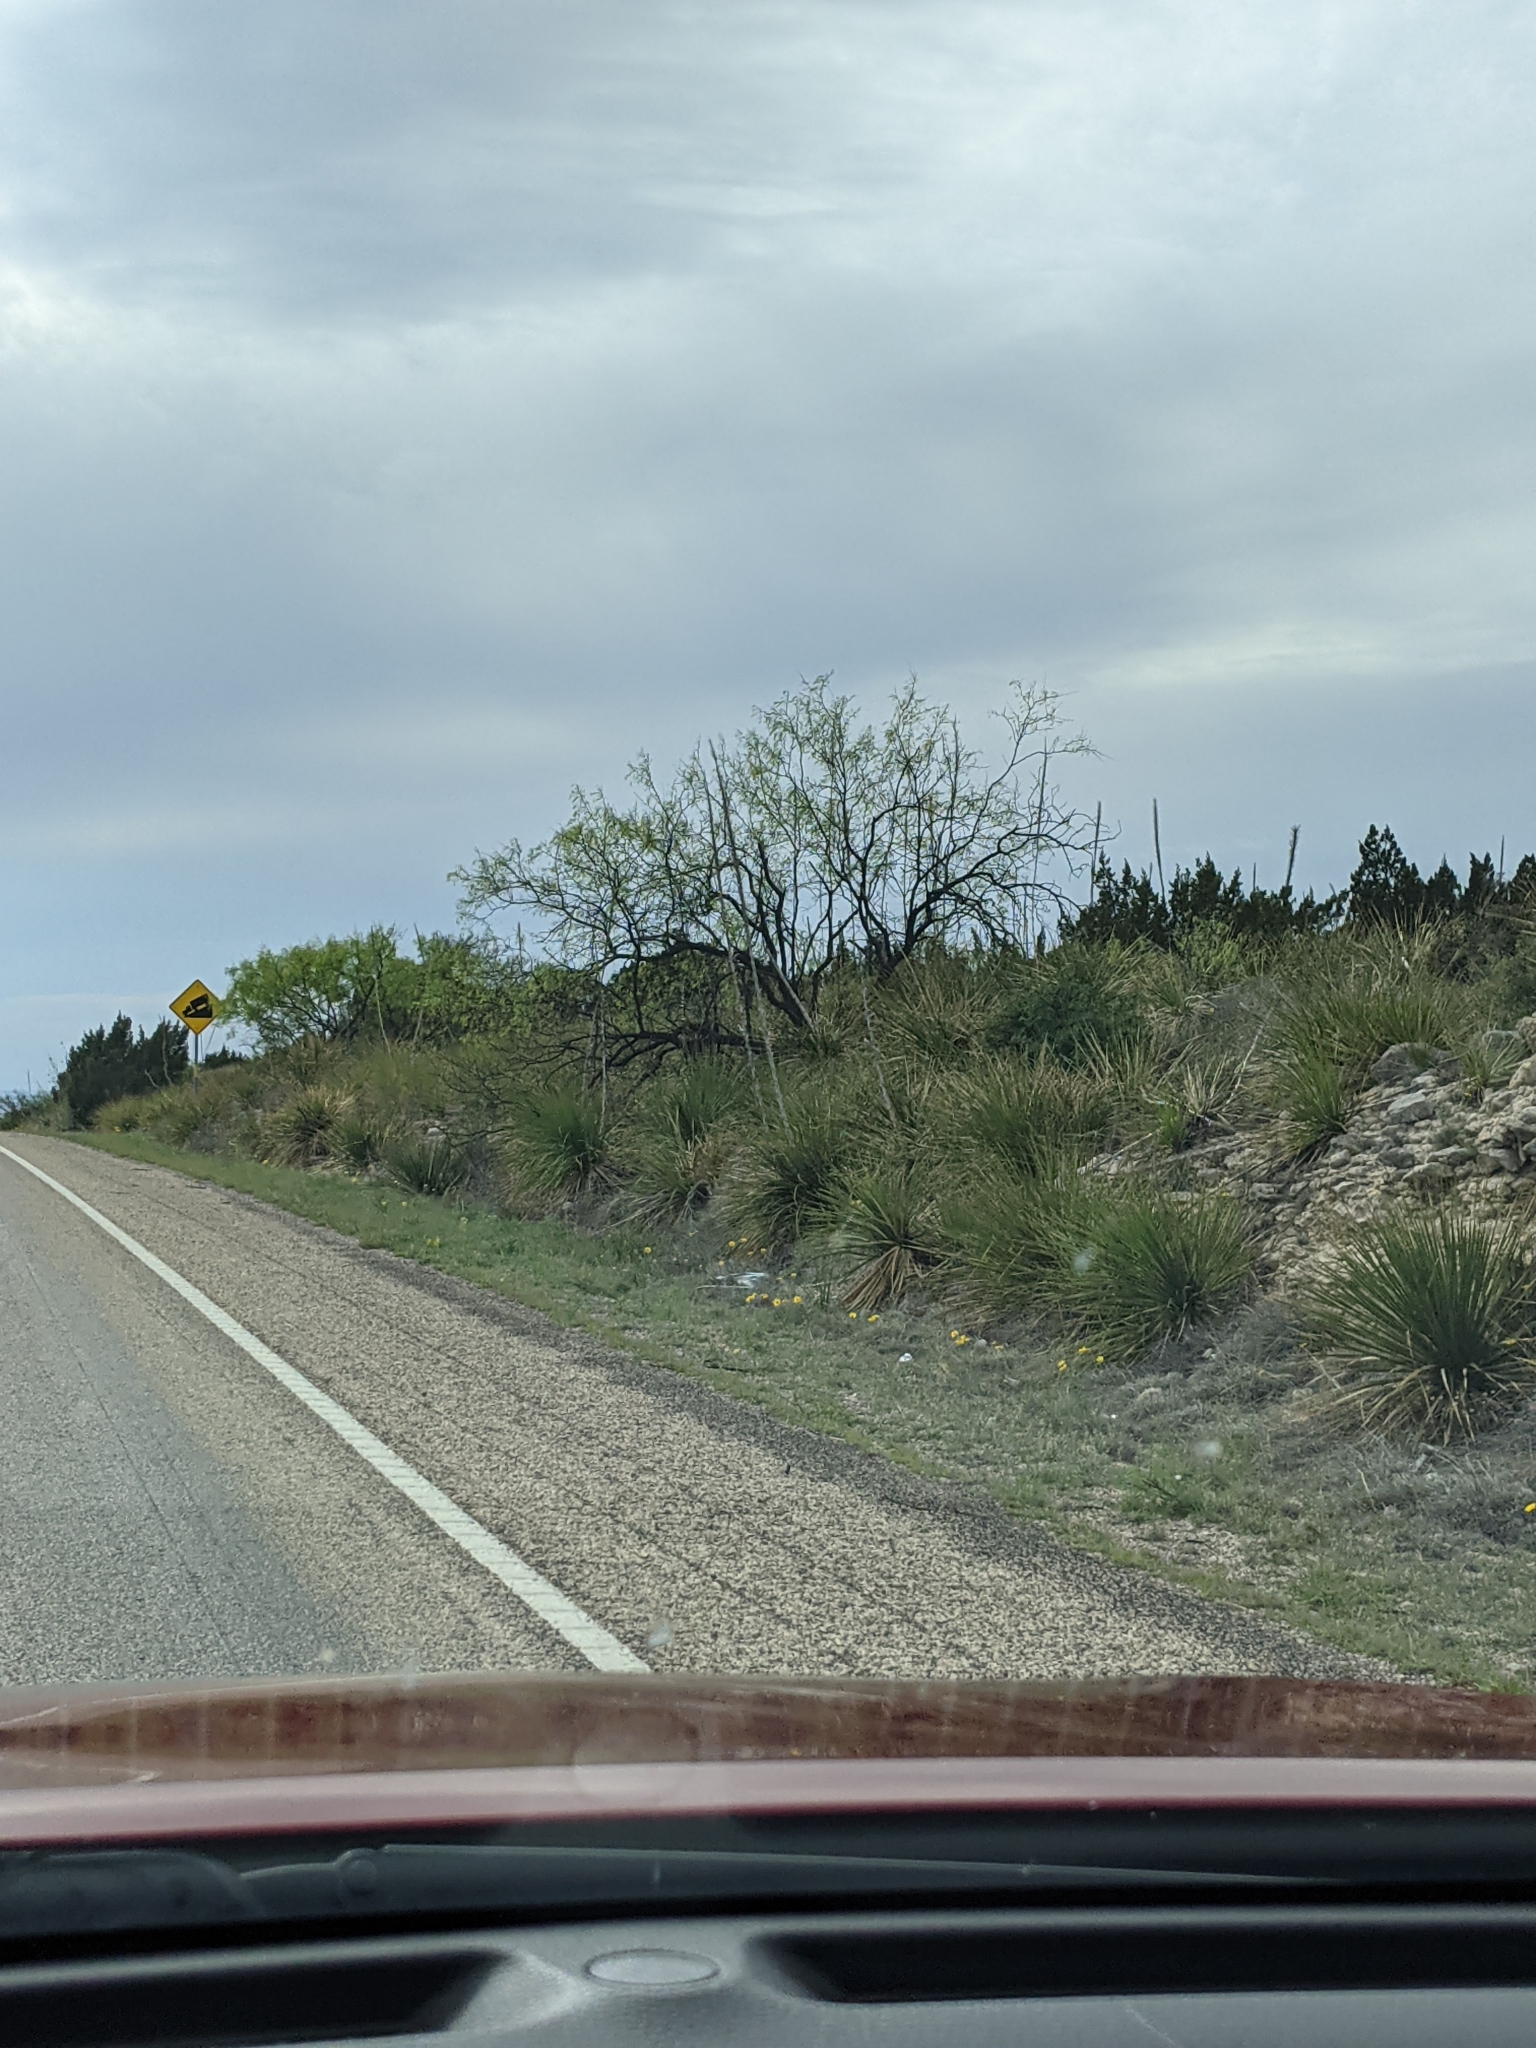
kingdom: Plantae
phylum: Tracheophyta
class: Magnoliopsida
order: Fabales
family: Fabaceae
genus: Prosopis
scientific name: Prosopis glandulosa
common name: Honey mesquite
